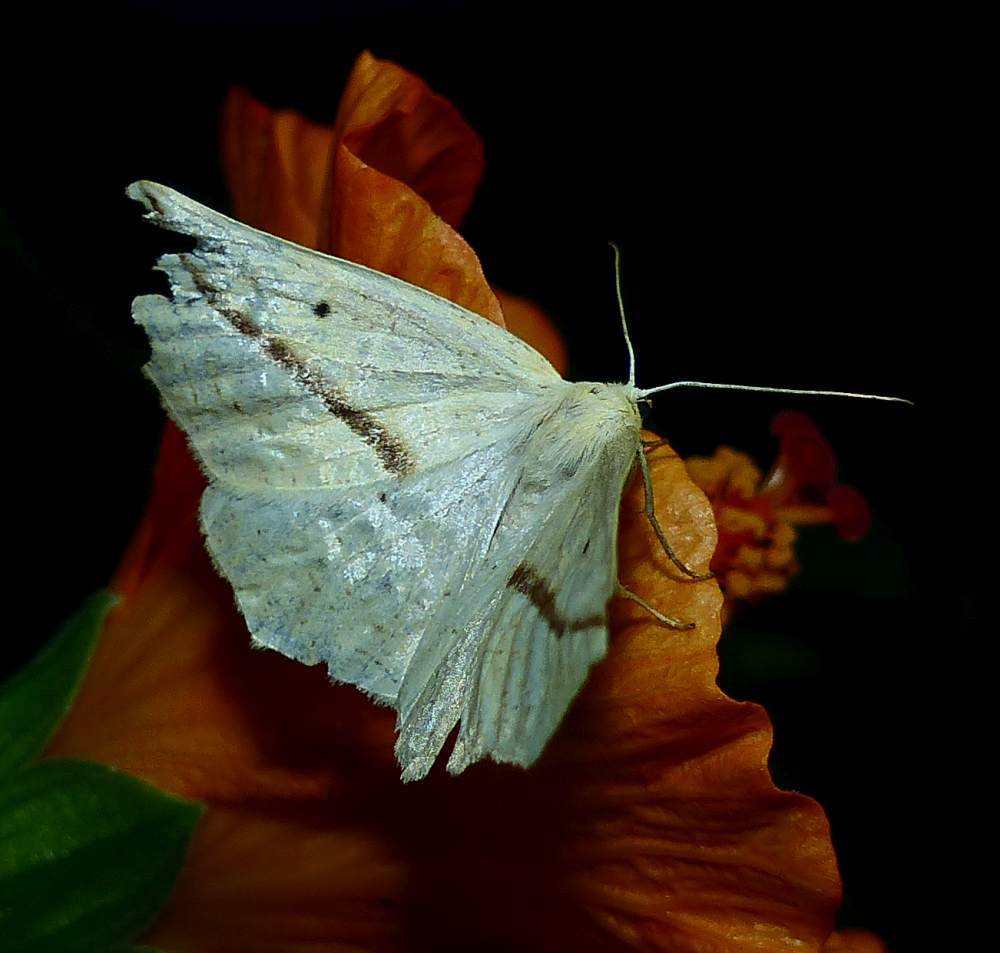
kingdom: Animalia
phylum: Arthropoda
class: Insecta
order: Lepidoptera
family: Geometridae
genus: Tetracis
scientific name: Tetracis crocallata
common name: Yellow slant-line
